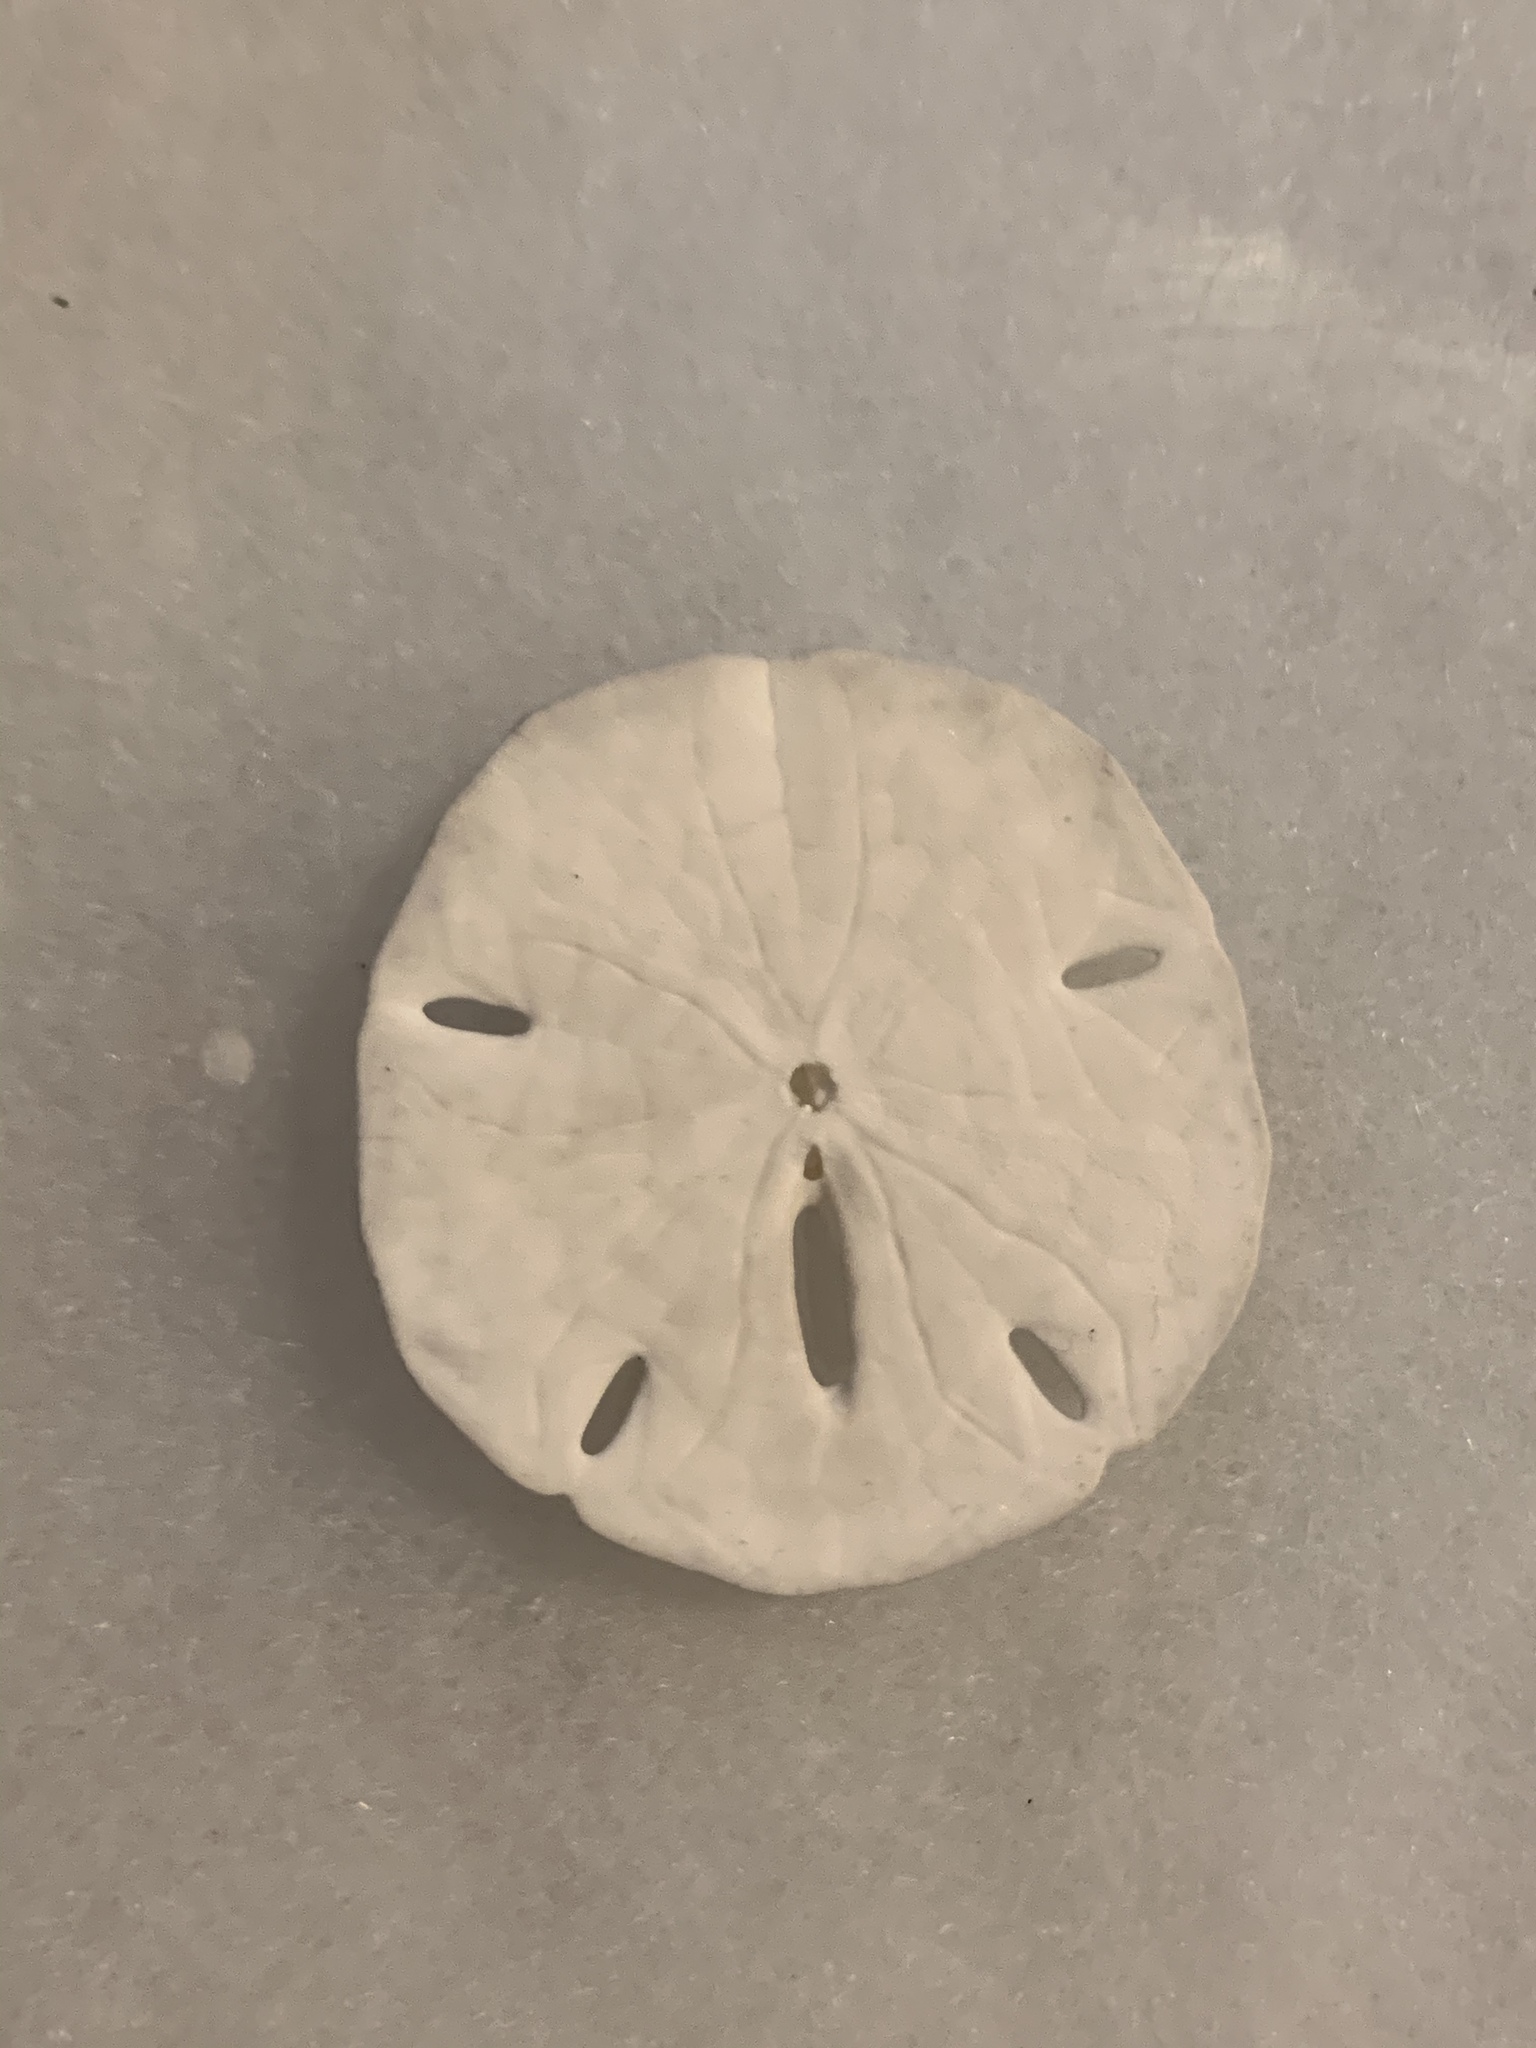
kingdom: Animalia
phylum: Echinodermata
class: Echinoidea
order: Echinolampadacea
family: Mellitidae
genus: Mellita
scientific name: Mellita tenuis
